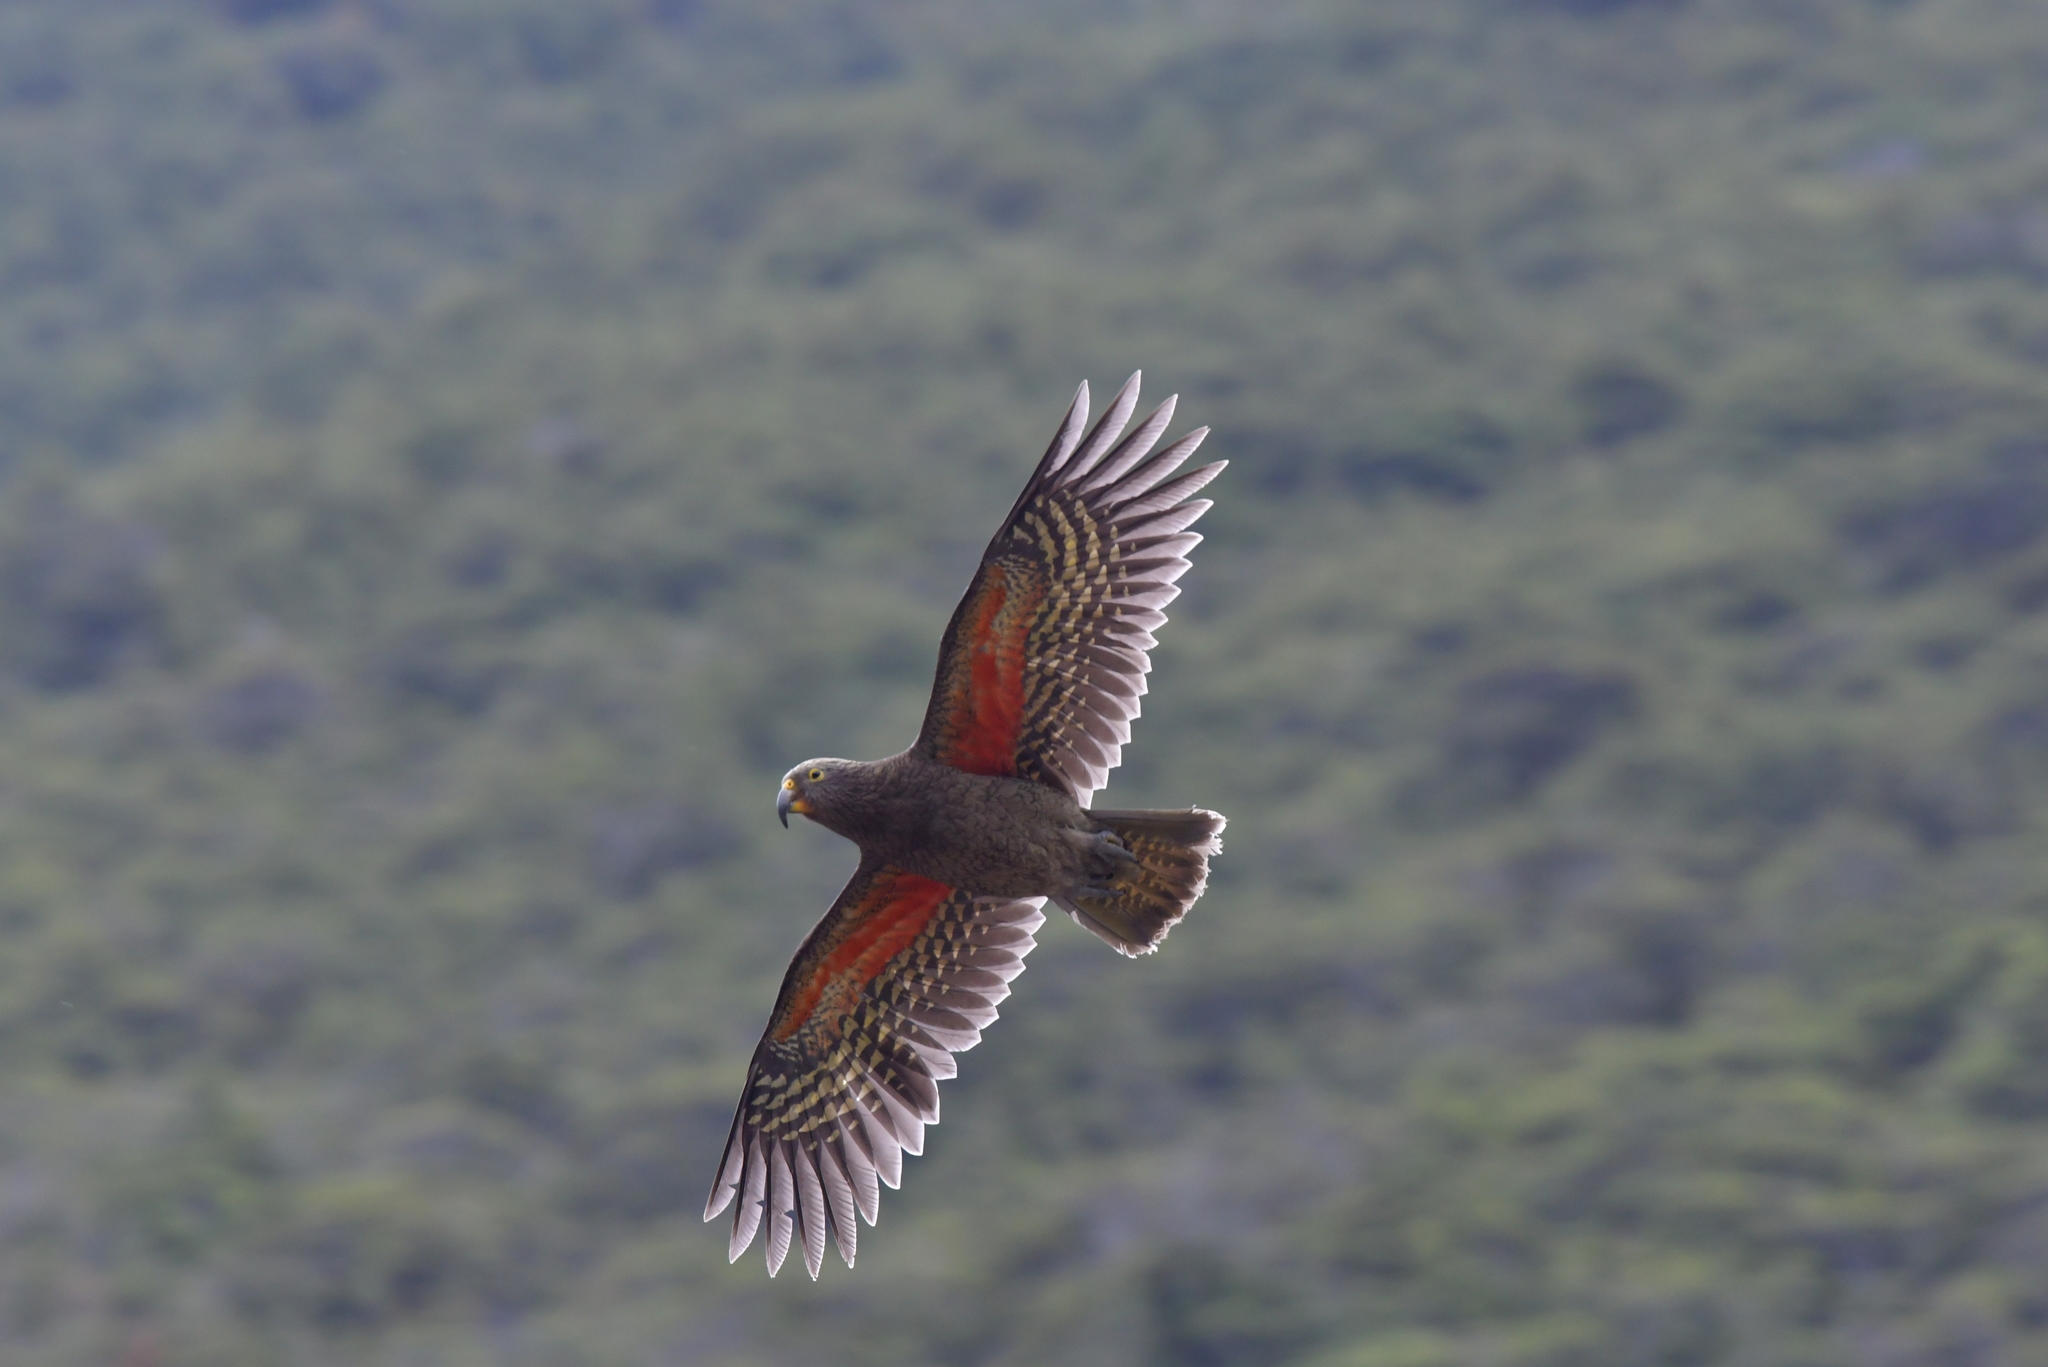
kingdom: Animalia
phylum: Chordata
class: Aves
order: Psittaciformes
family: Psittacidae
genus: Nestor
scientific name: Nestor notabilis
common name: Kea
